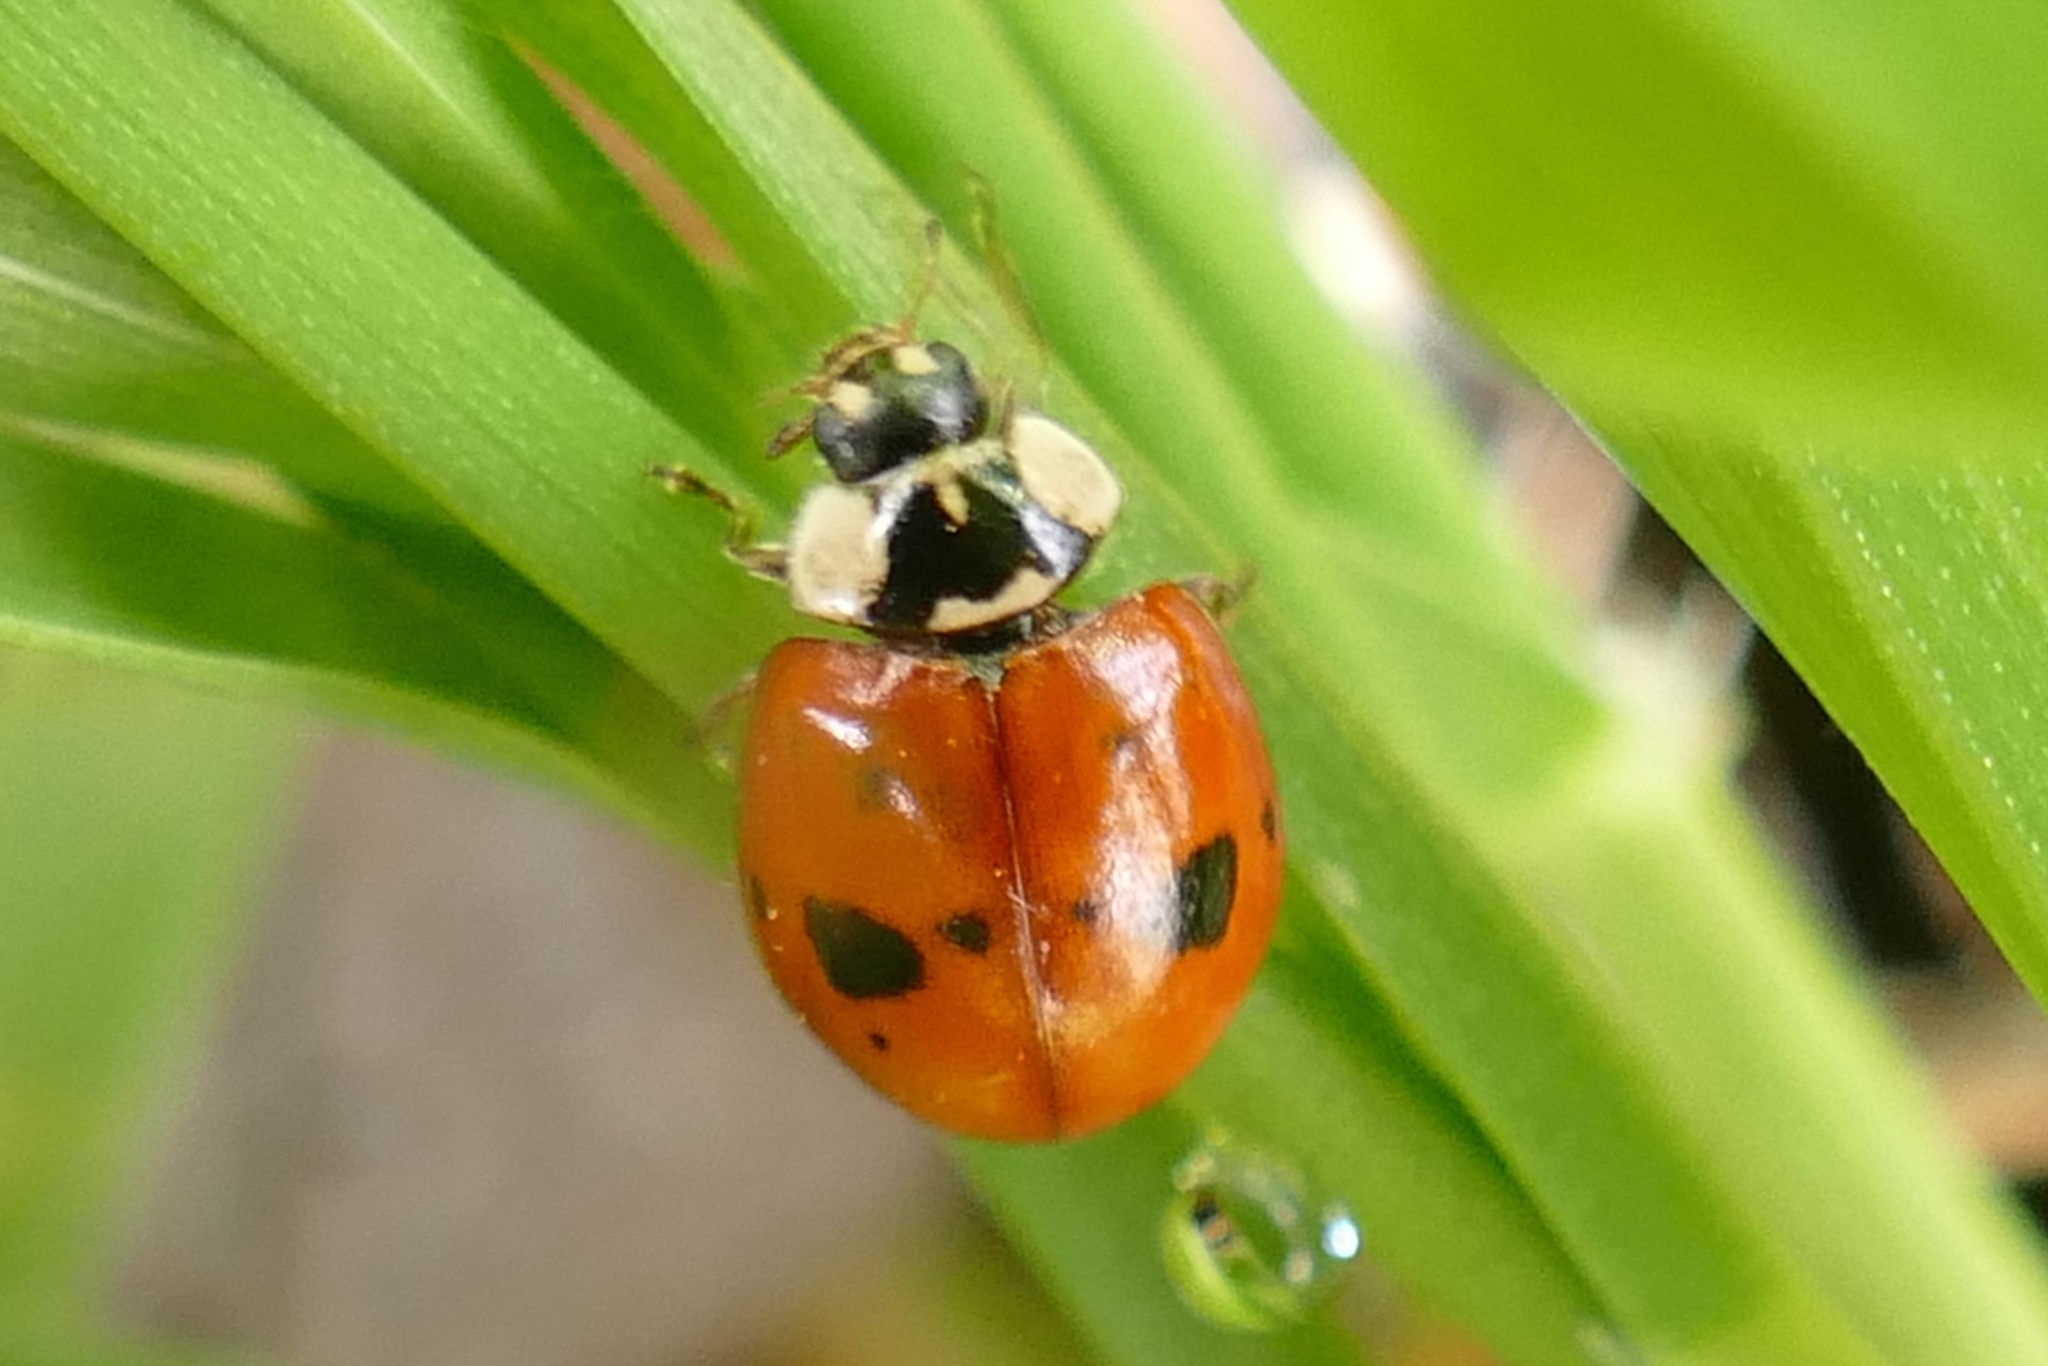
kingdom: Animalia
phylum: Arthropoda
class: Insecta
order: Coleoptera
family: Coccinellidae
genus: Adalia
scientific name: Adalia bipunctata
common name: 2-spot ladybird
